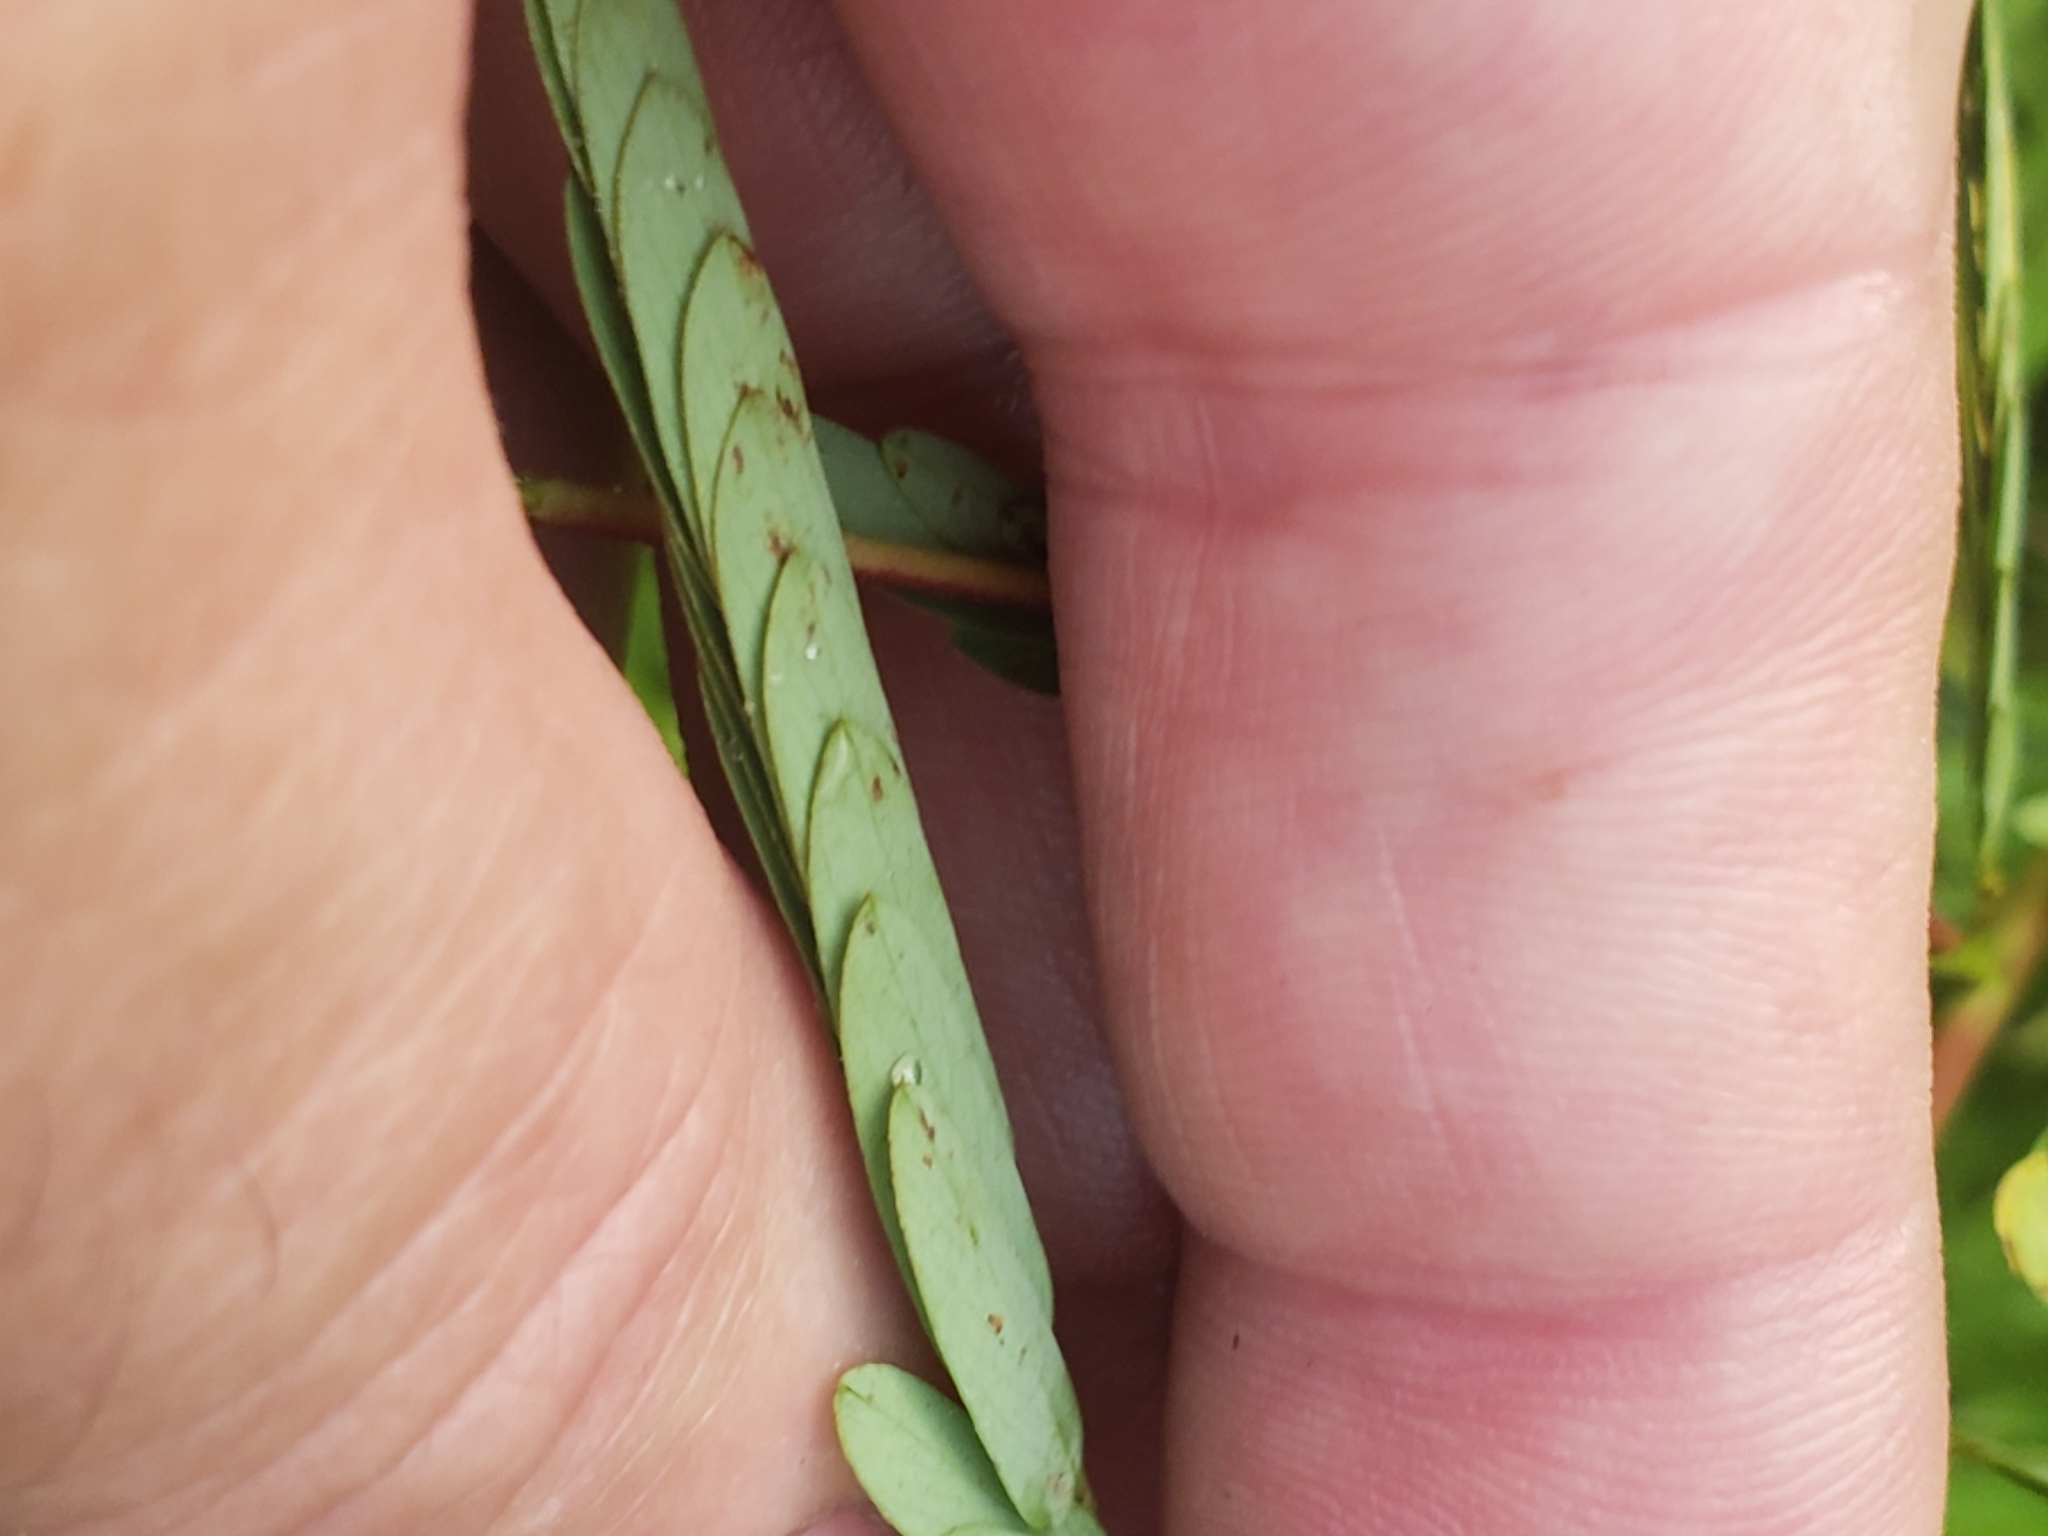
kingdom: Plantae
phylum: Tracheophyta
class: Magnoliopsida
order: Fabales
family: Fabaceae
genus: Chamaecrista
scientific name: Chamaecrista fasciculata
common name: Golden cassia
